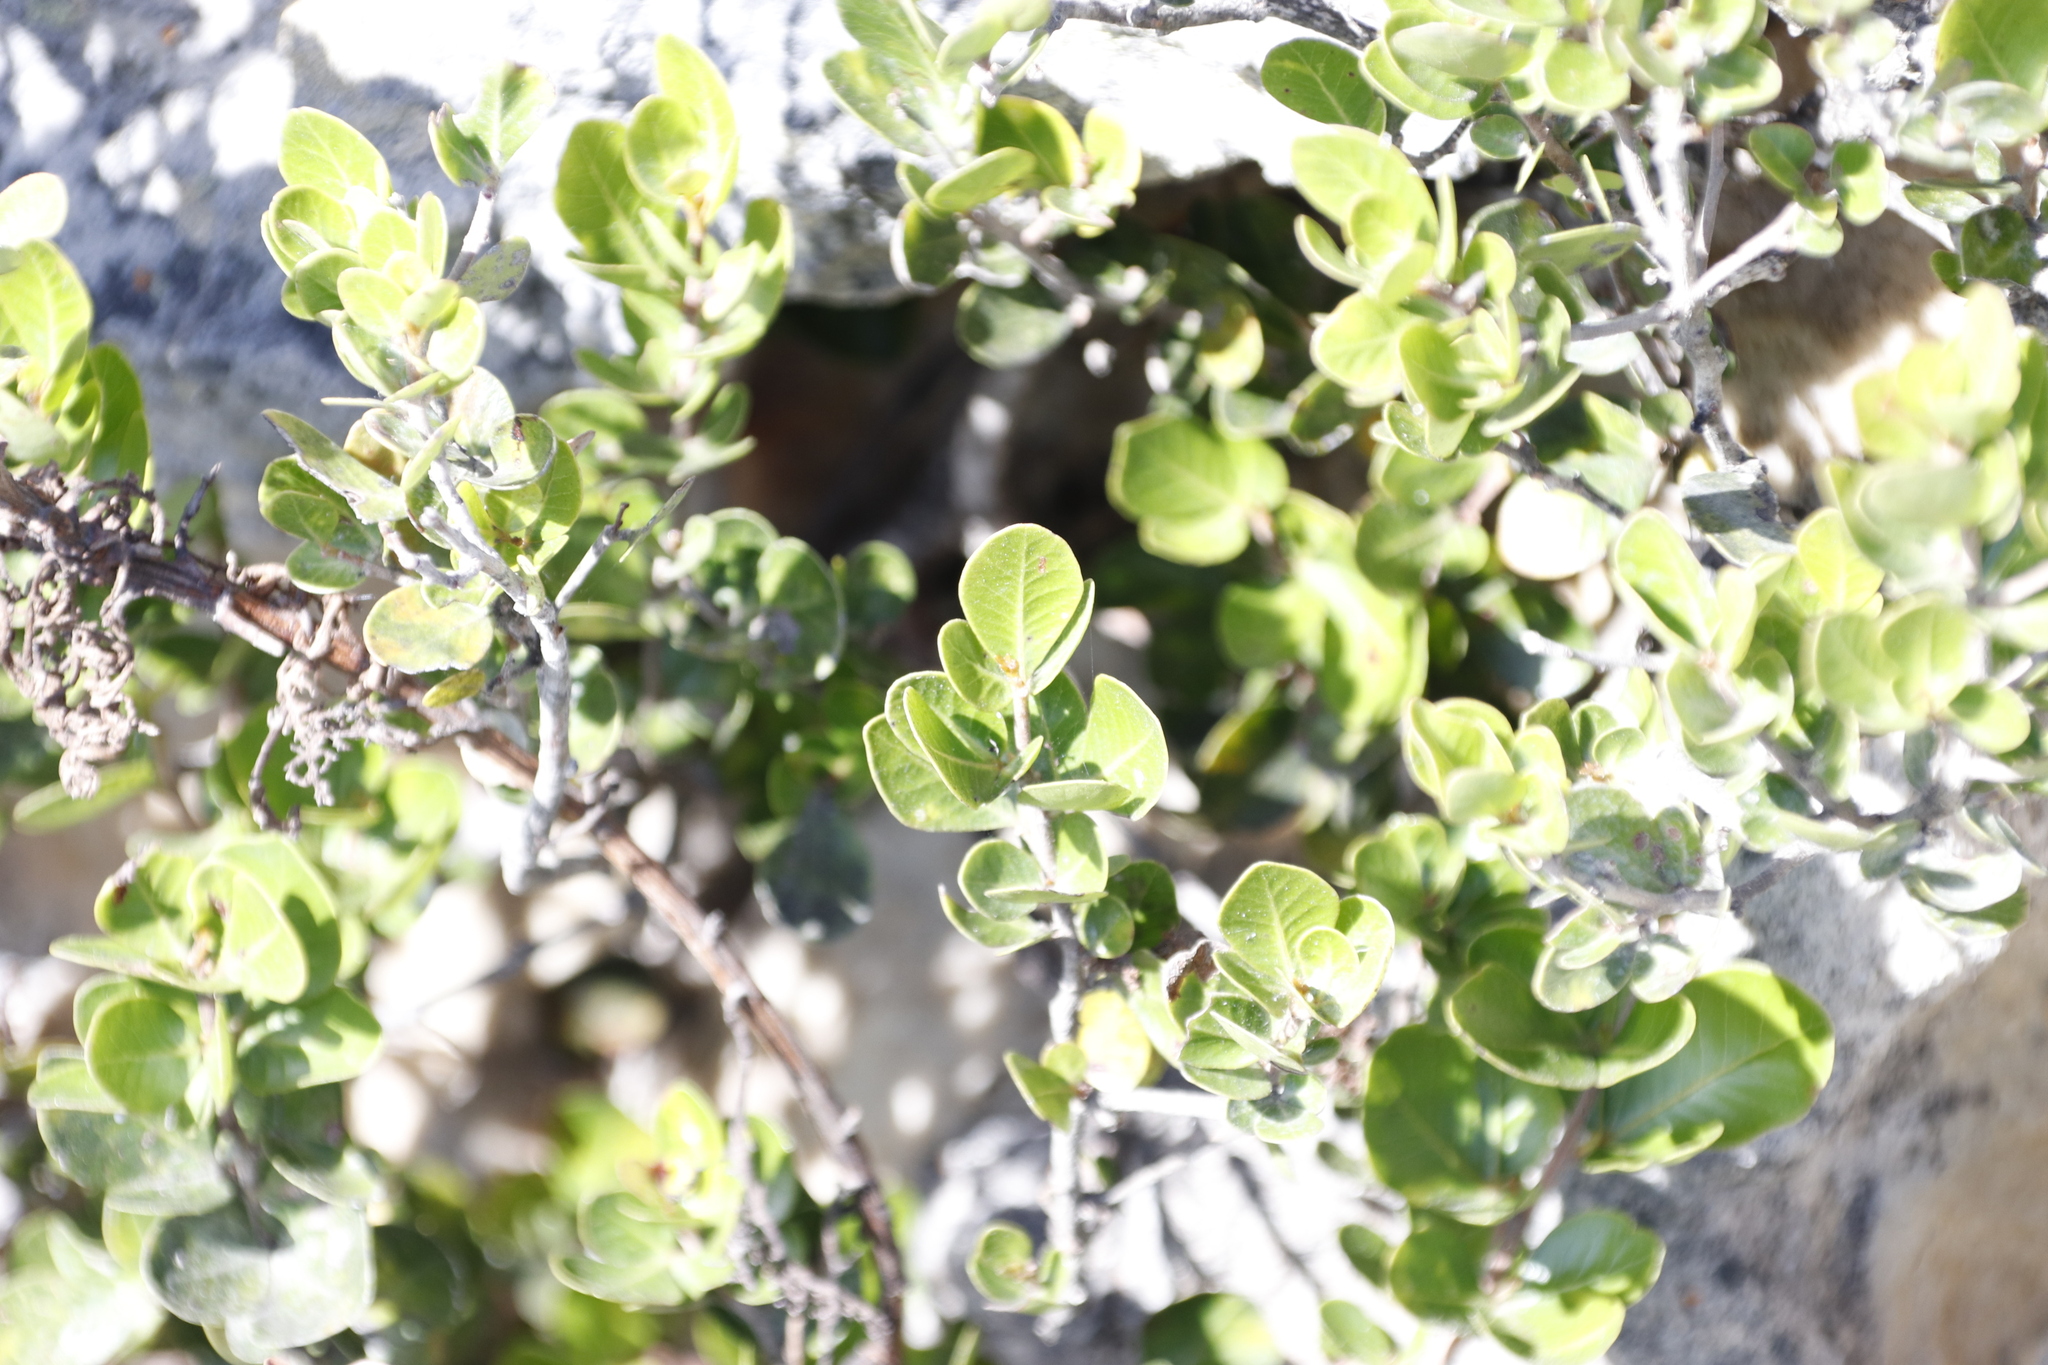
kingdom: Plantae
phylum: Tracheophyta
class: Magnoliopsida
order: Sapindales
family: Anacardiaceae
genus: Searsia
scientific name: Searsia lucida
